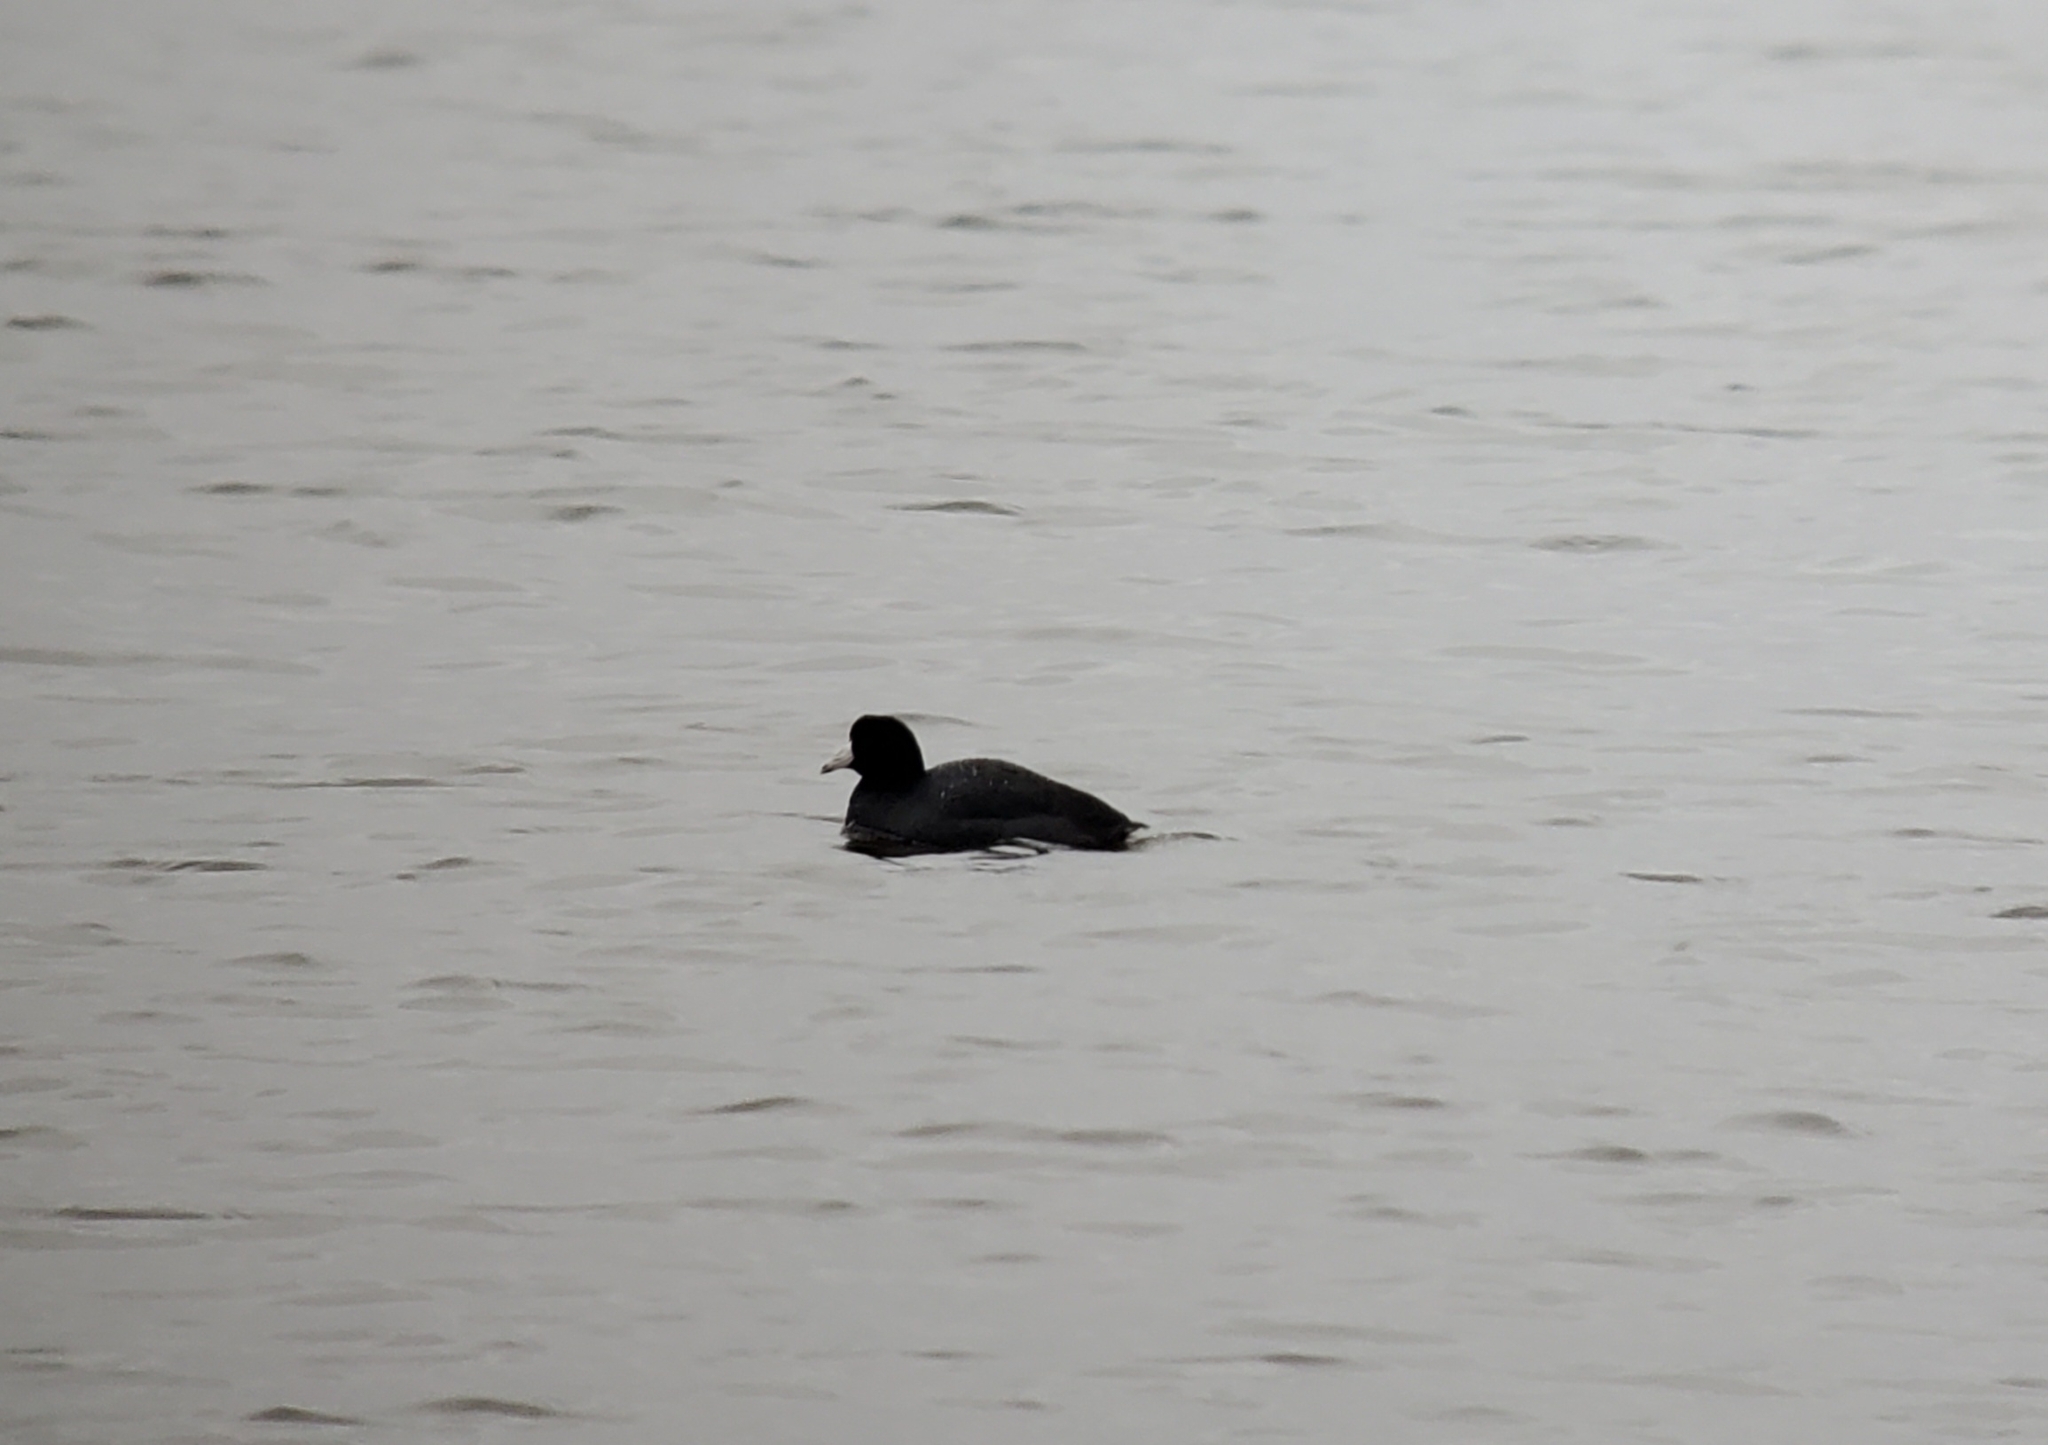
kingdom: Animalia
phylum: Chordata
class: Aves
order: Gruiformes
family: Rallidae
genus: Fulica
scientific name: Fulica americana
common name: American coot
